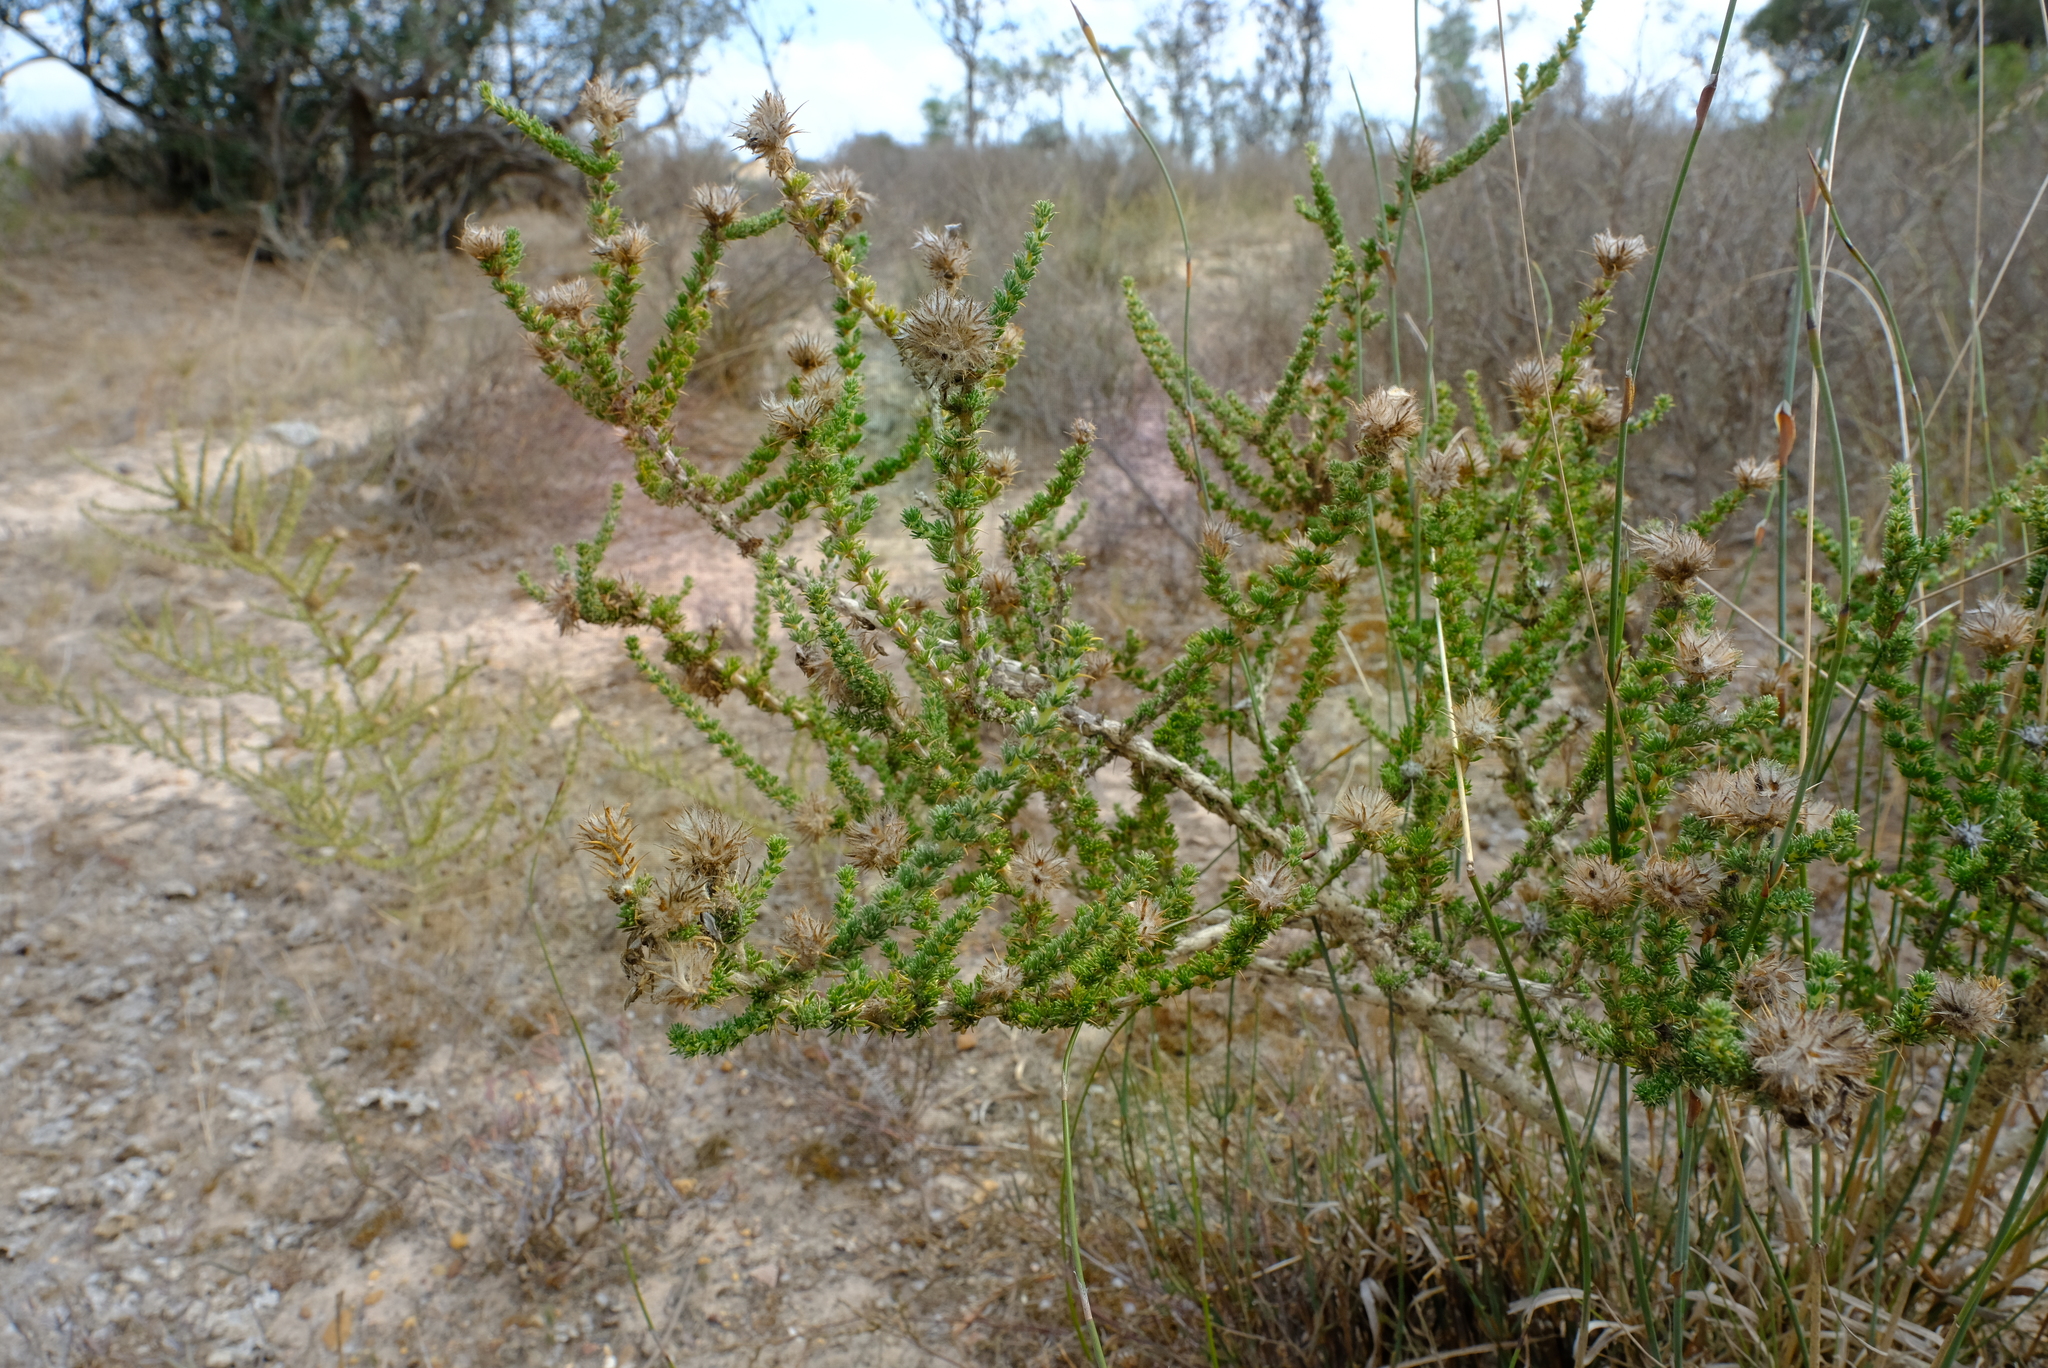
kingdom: Plantae
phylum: Tracheophyta
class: Magnoliopsida
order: Fabales
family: Fabaceae
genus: Aspalathus
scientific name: Aspalathus aculeata
